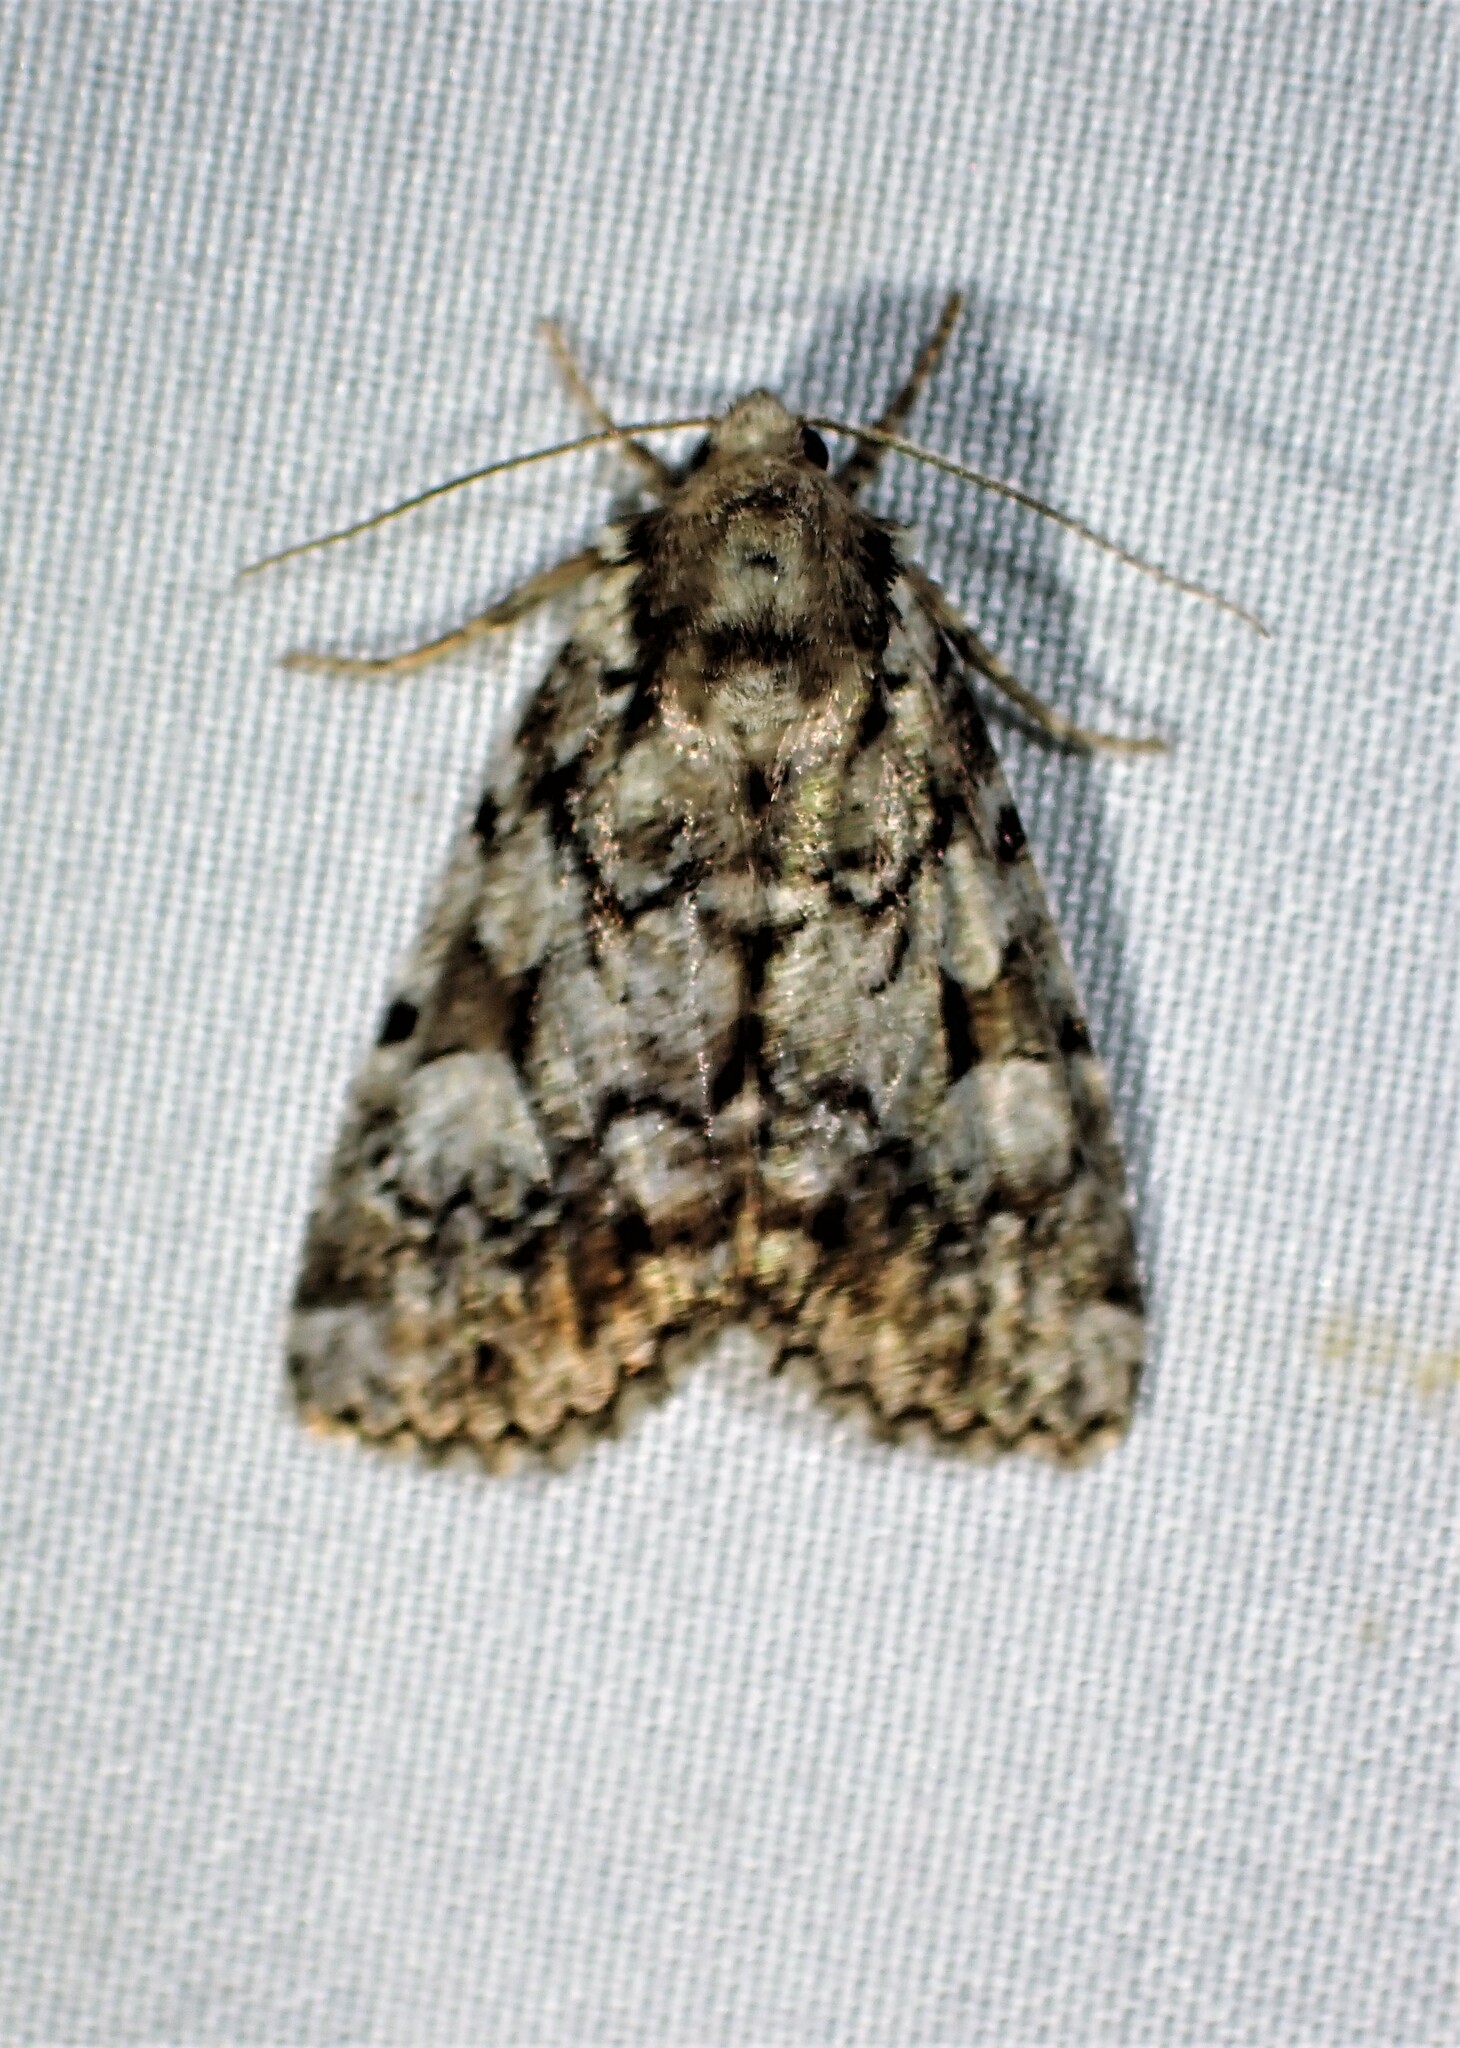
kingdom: Animalia
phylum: Arthropoda
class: Insecta
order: Lepidoptera
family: Noctuidae
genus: Aplectoides
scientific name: Aplectoides condita
